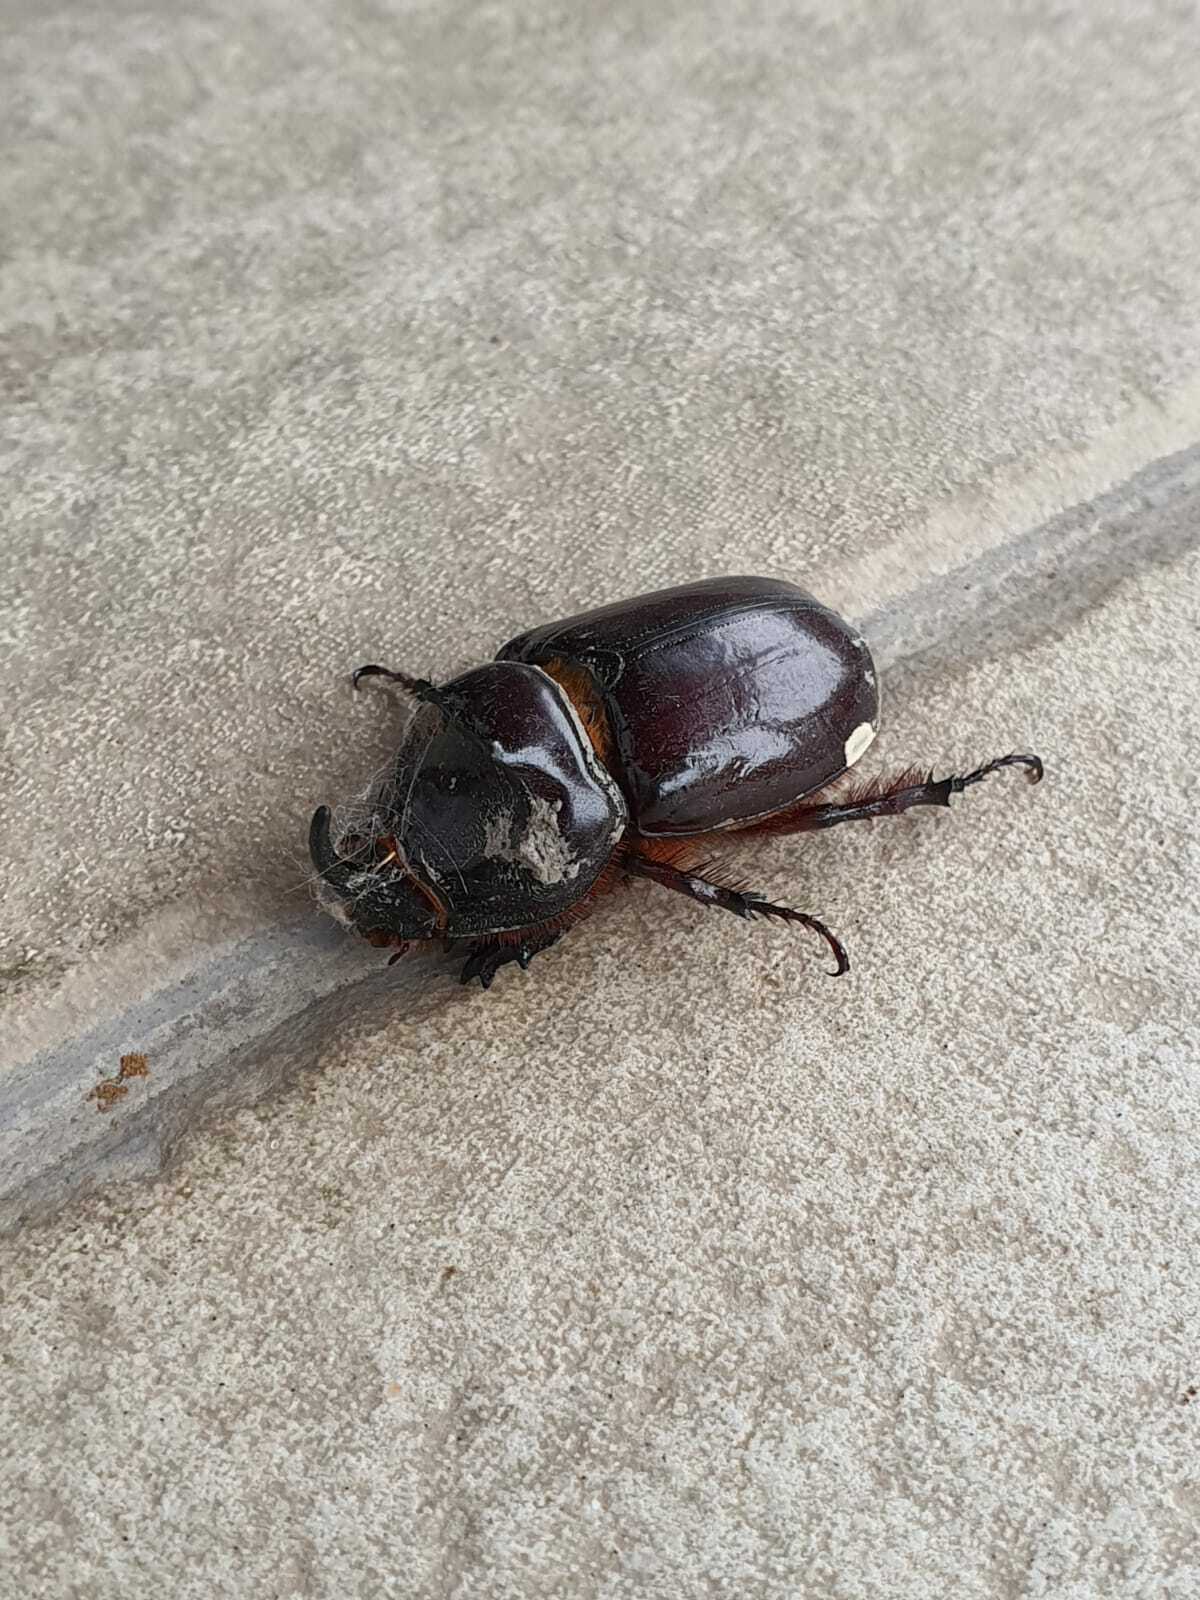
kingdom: Animalia
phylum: Arthropoda
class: Insecta
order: Coleoptera
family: Scarabaeidae
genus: Oryctes
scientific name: Oryctes nasicornis
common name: European rhinoceros beetle
